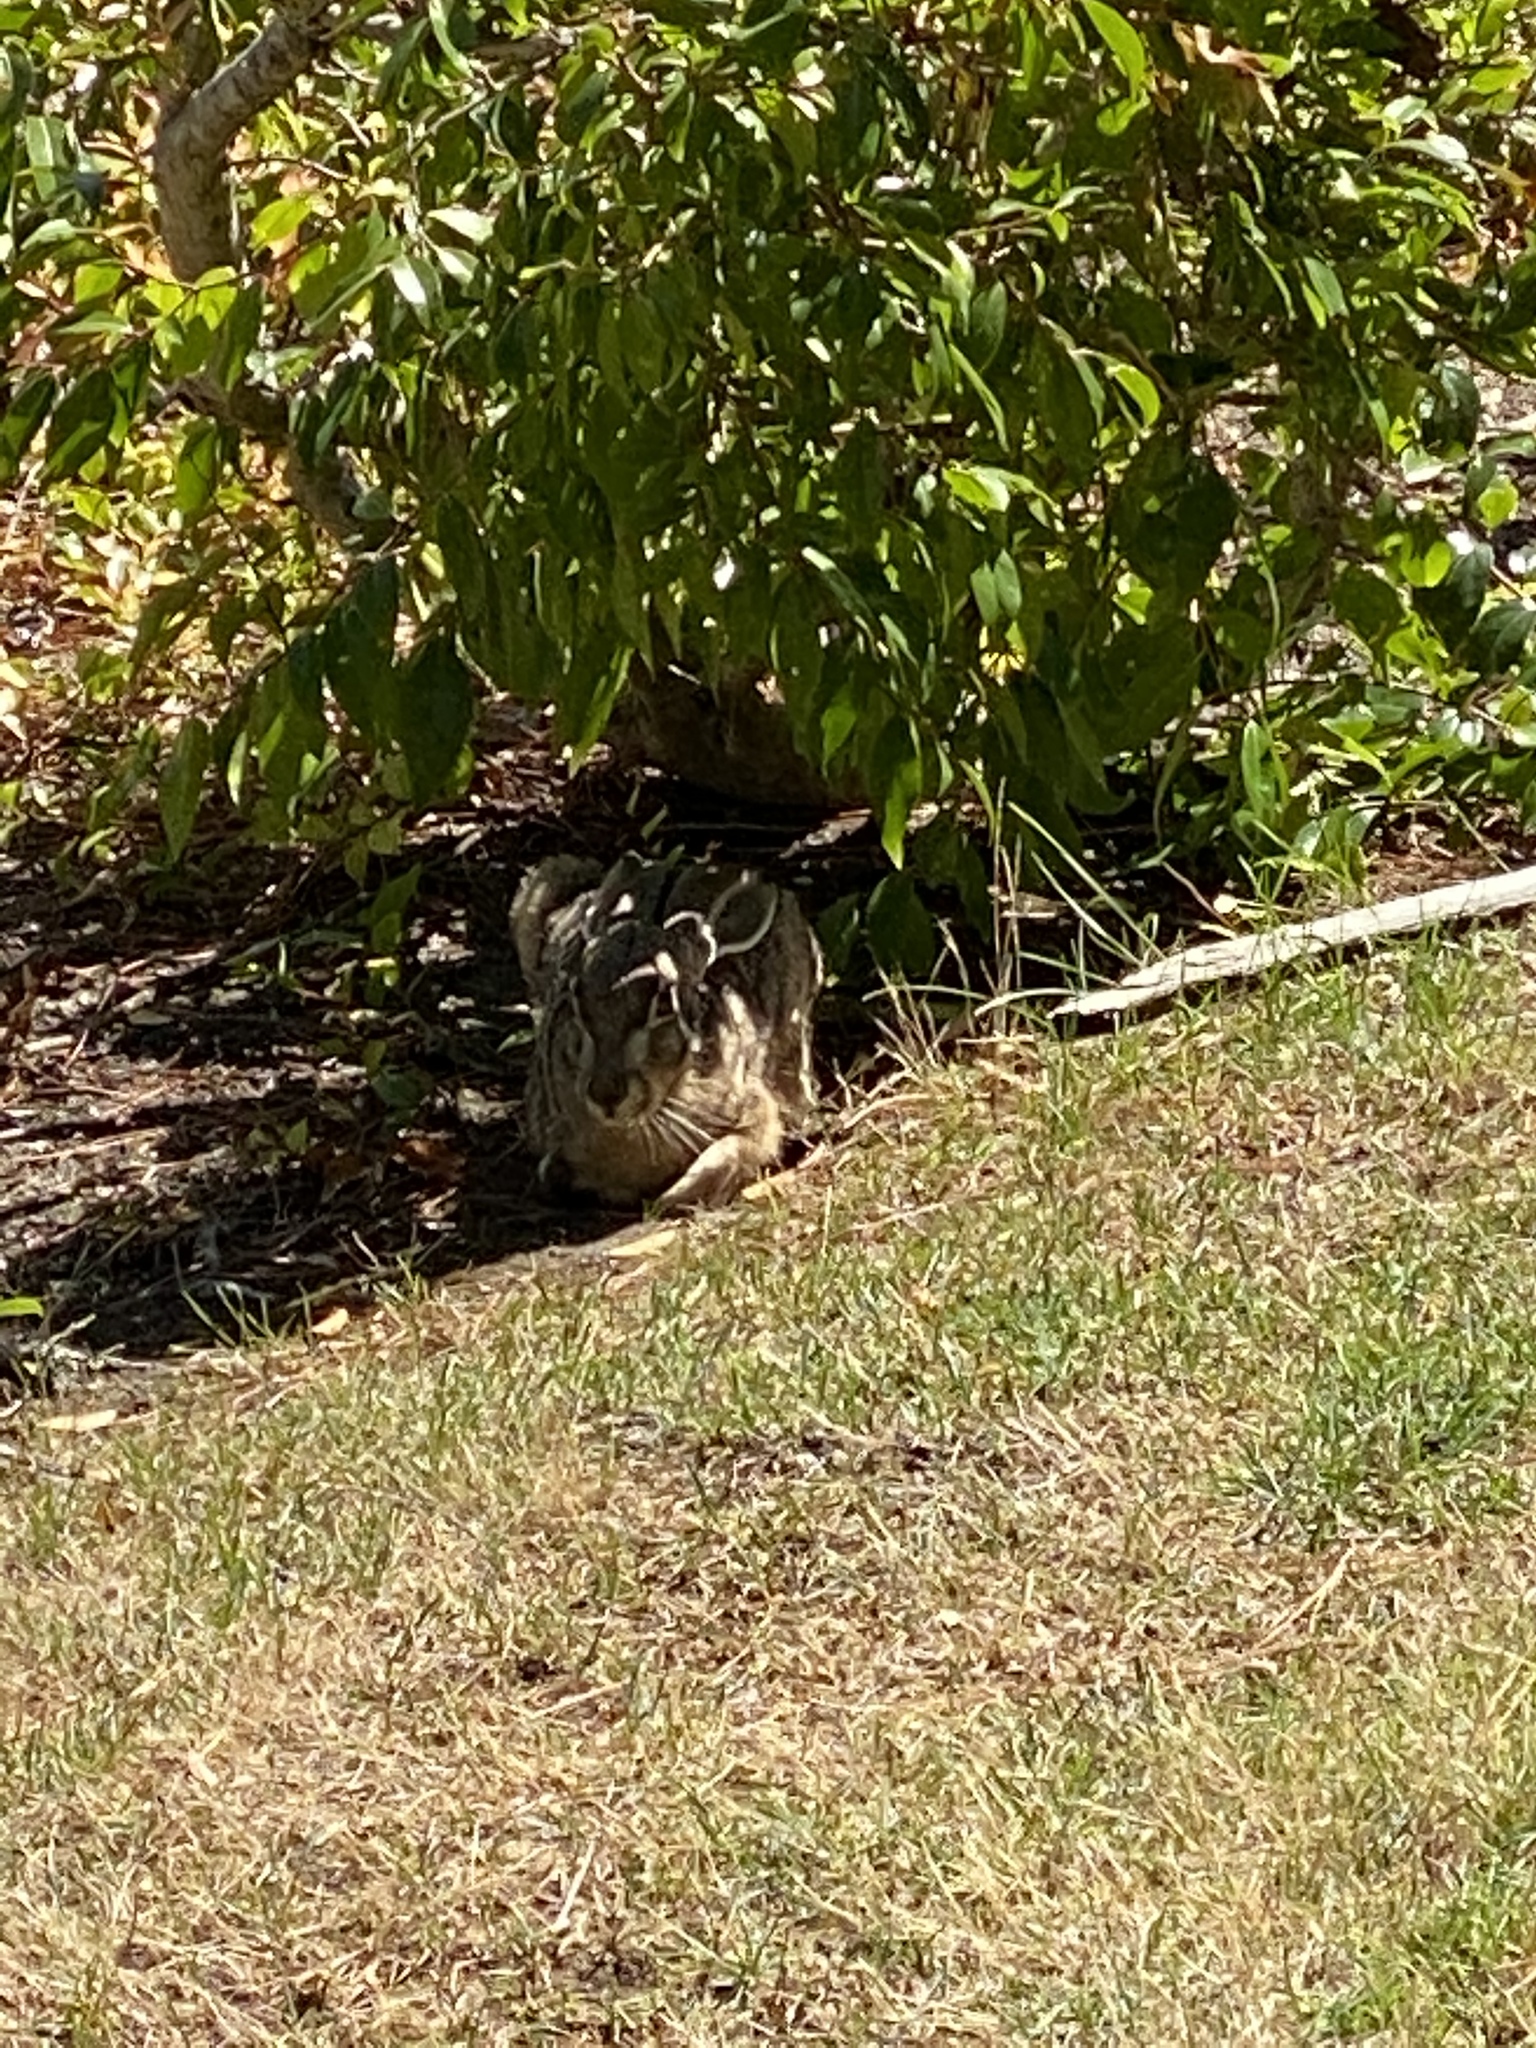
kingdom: Animalia
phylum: Chordata
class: Mammalia
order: Lagomorpha
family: Leporidae
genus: Lepus
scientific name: Lepus californicus
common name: Black-tailed jackrabbit
